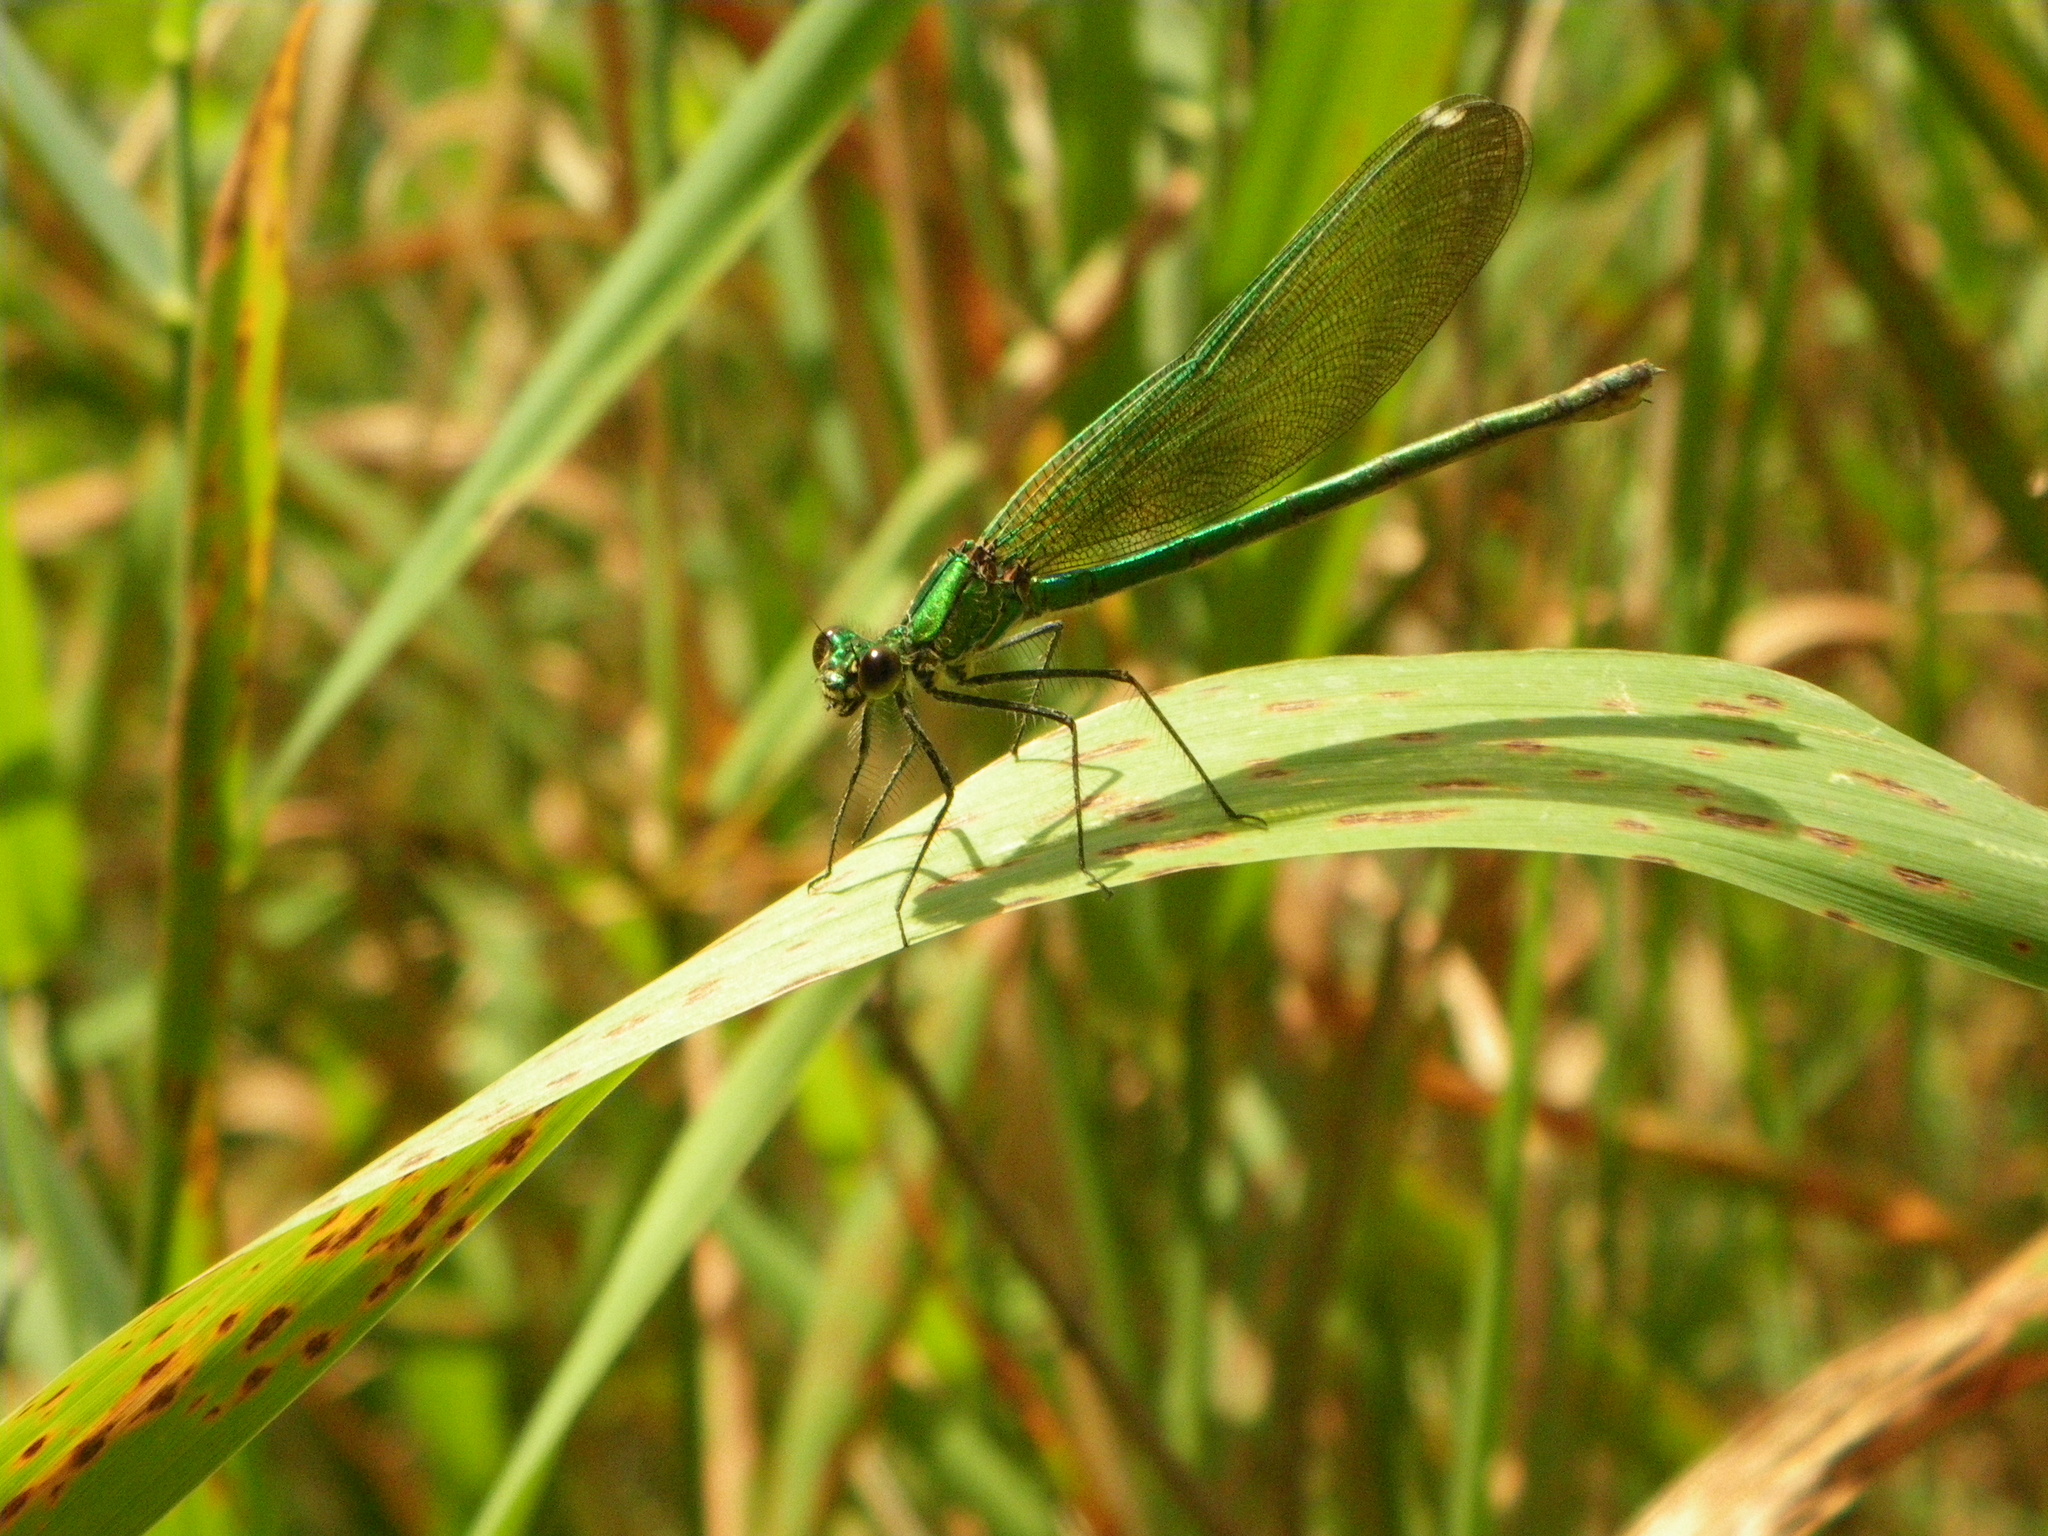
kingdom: Animalia
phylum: Arthropoda
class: Insecta
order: Odonata
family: Calopterygidae
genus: Calopteryx
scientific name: Calopteryx splendens
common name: Banded demoiselle
